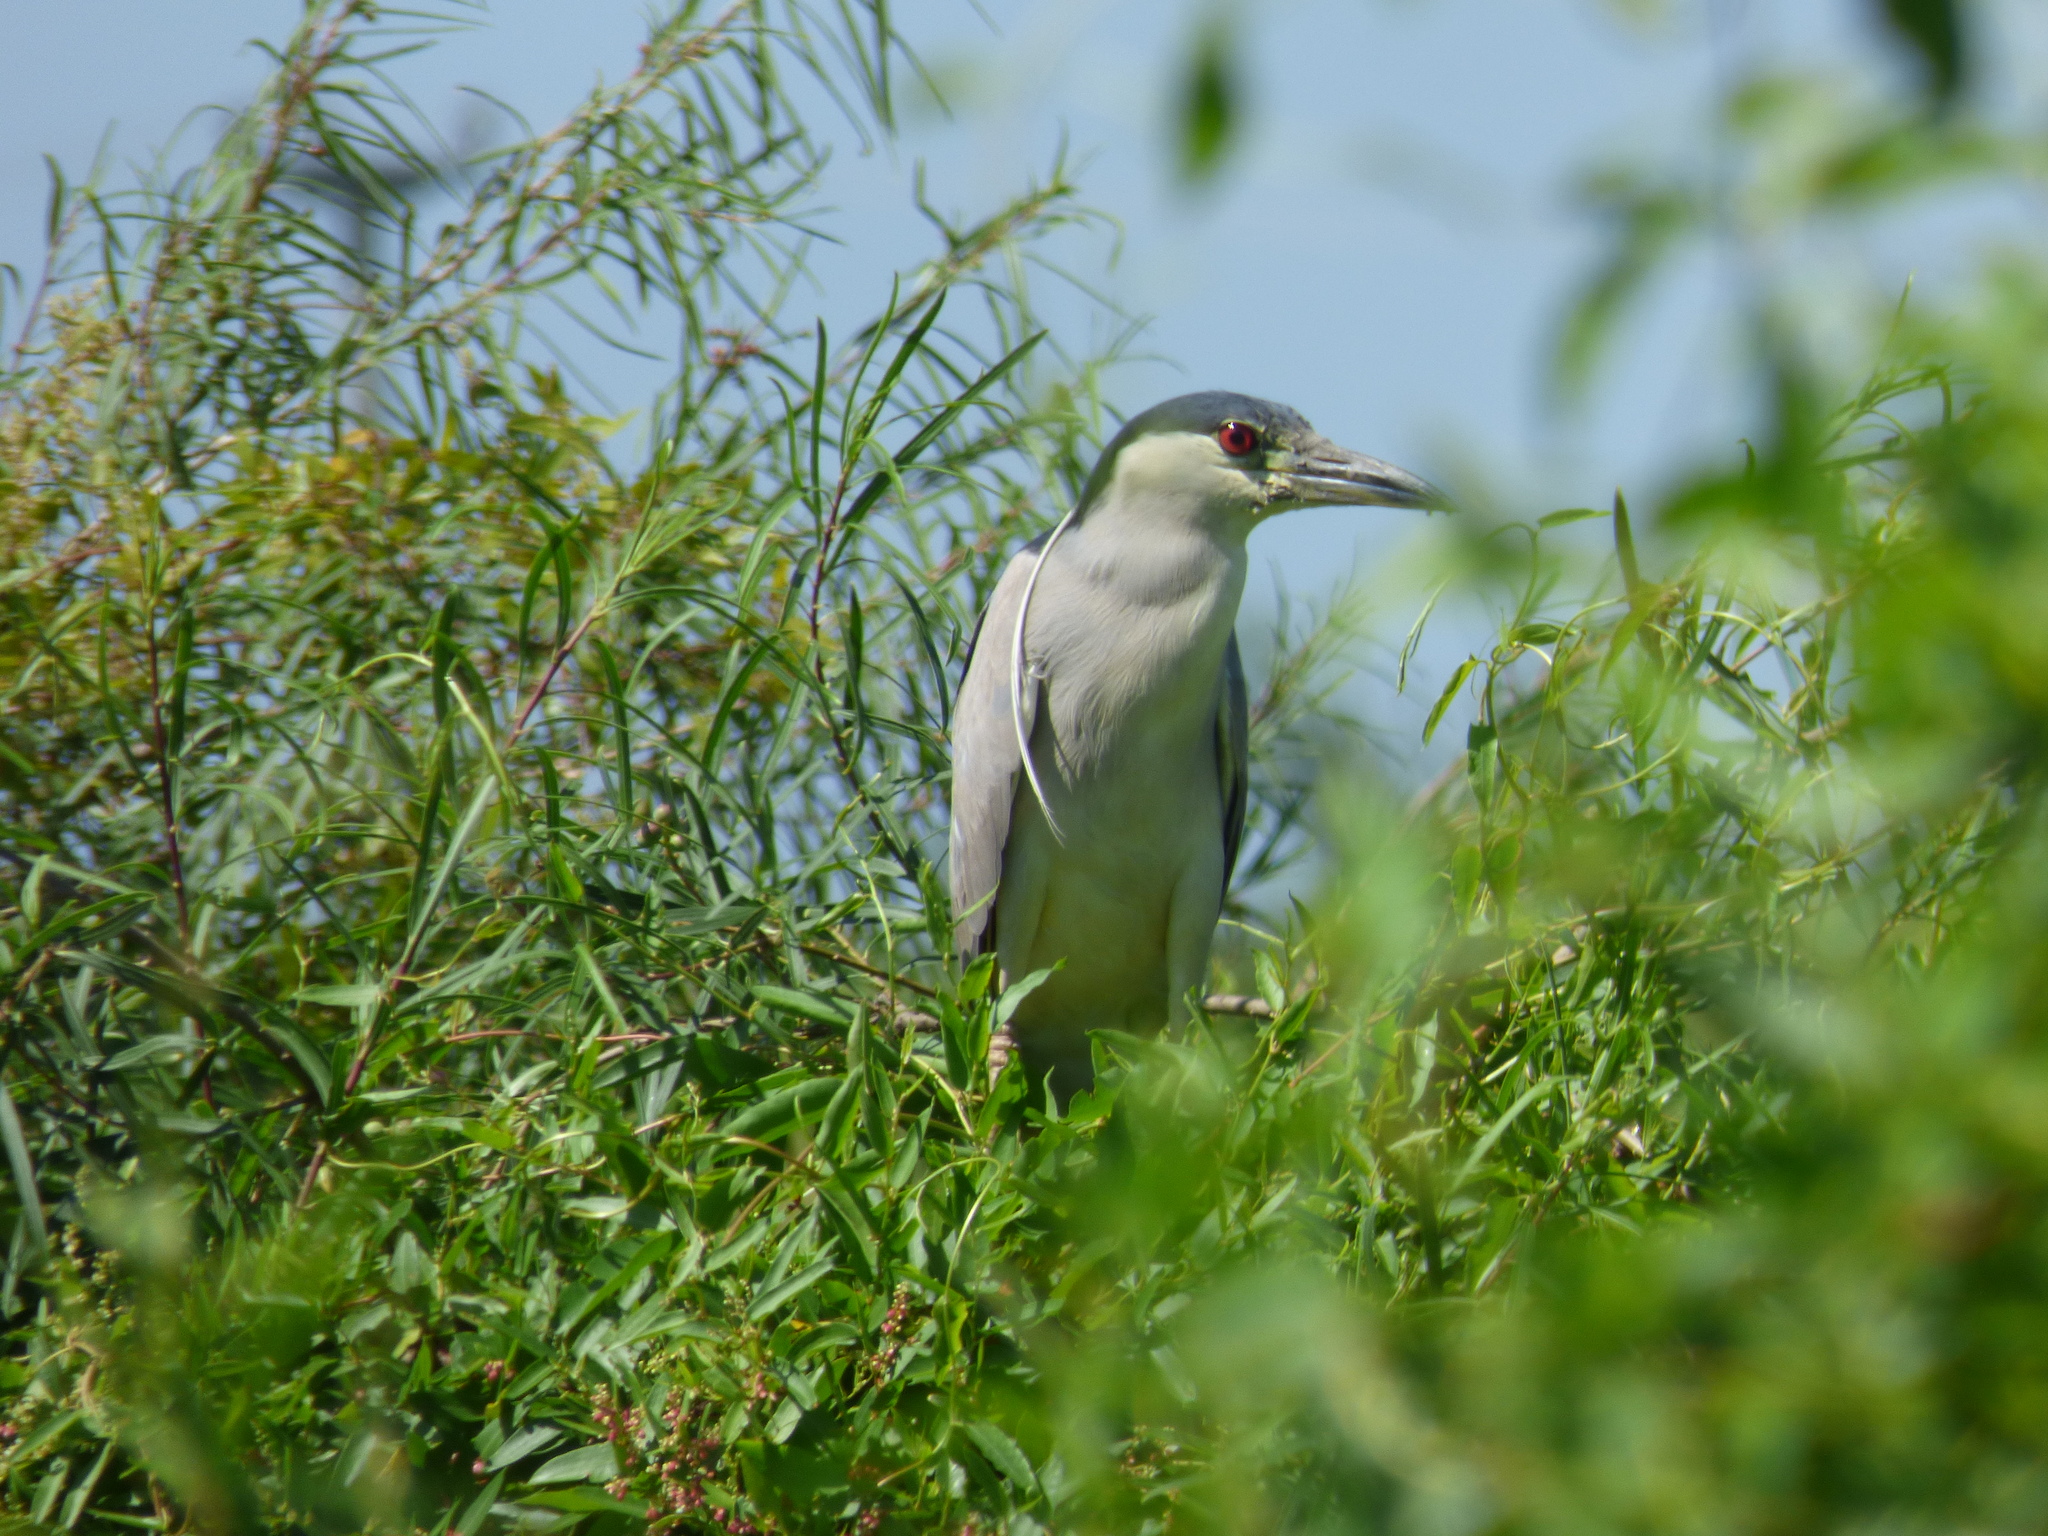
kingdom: Animalia
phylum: Chordata
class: Aves
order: Pelecaniformes
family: Ardeidae
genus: Nycticorax
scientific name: Nycticorax nycticorax
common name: Black-crowned night heron
